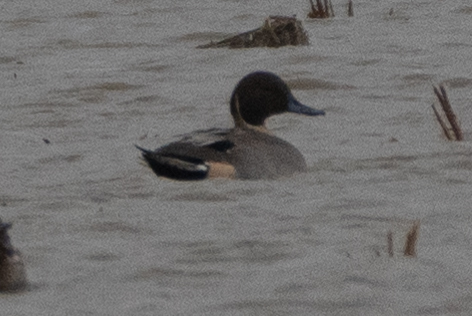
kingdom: Animalia
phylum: Chordata
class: Aves
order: Anseriformes
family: Anatidae
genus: Anas
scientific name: Anas acuta
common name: Northern pintail
